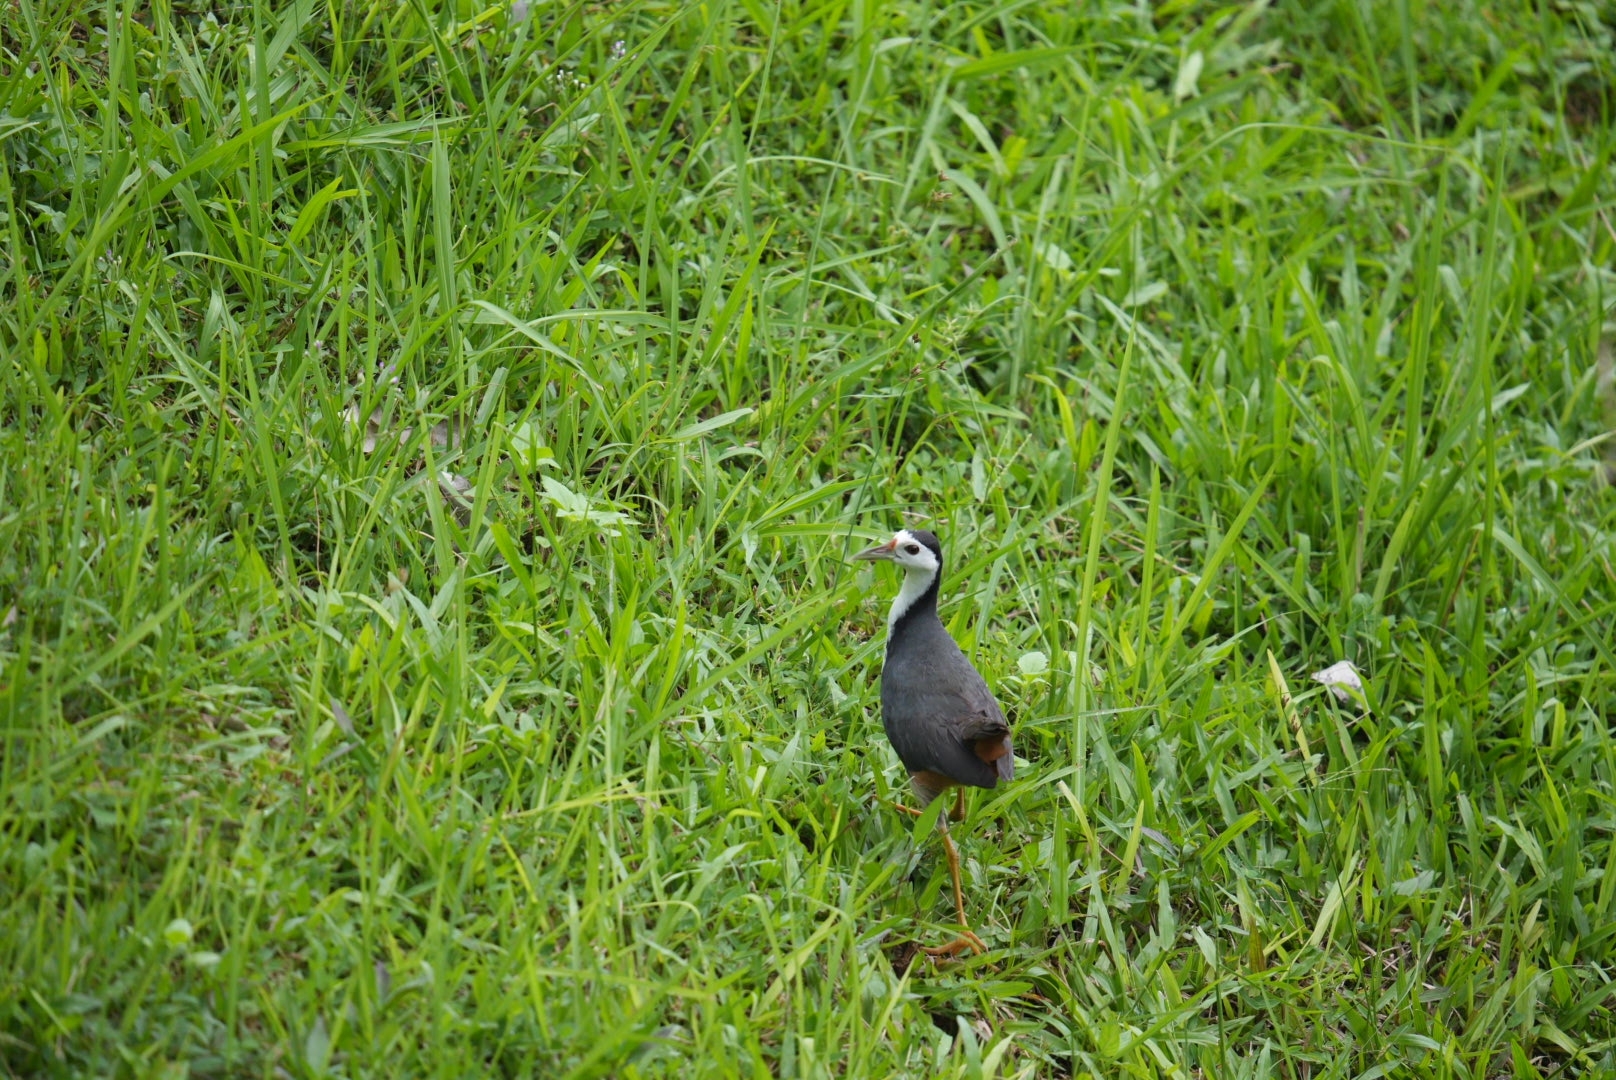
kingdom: Animalia
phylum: Chordata
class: Aves
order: Gruiformes
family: Rallidae
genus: Amaurornis
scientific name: Amaurornis phoenicurus
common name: White-breasted waterhen
